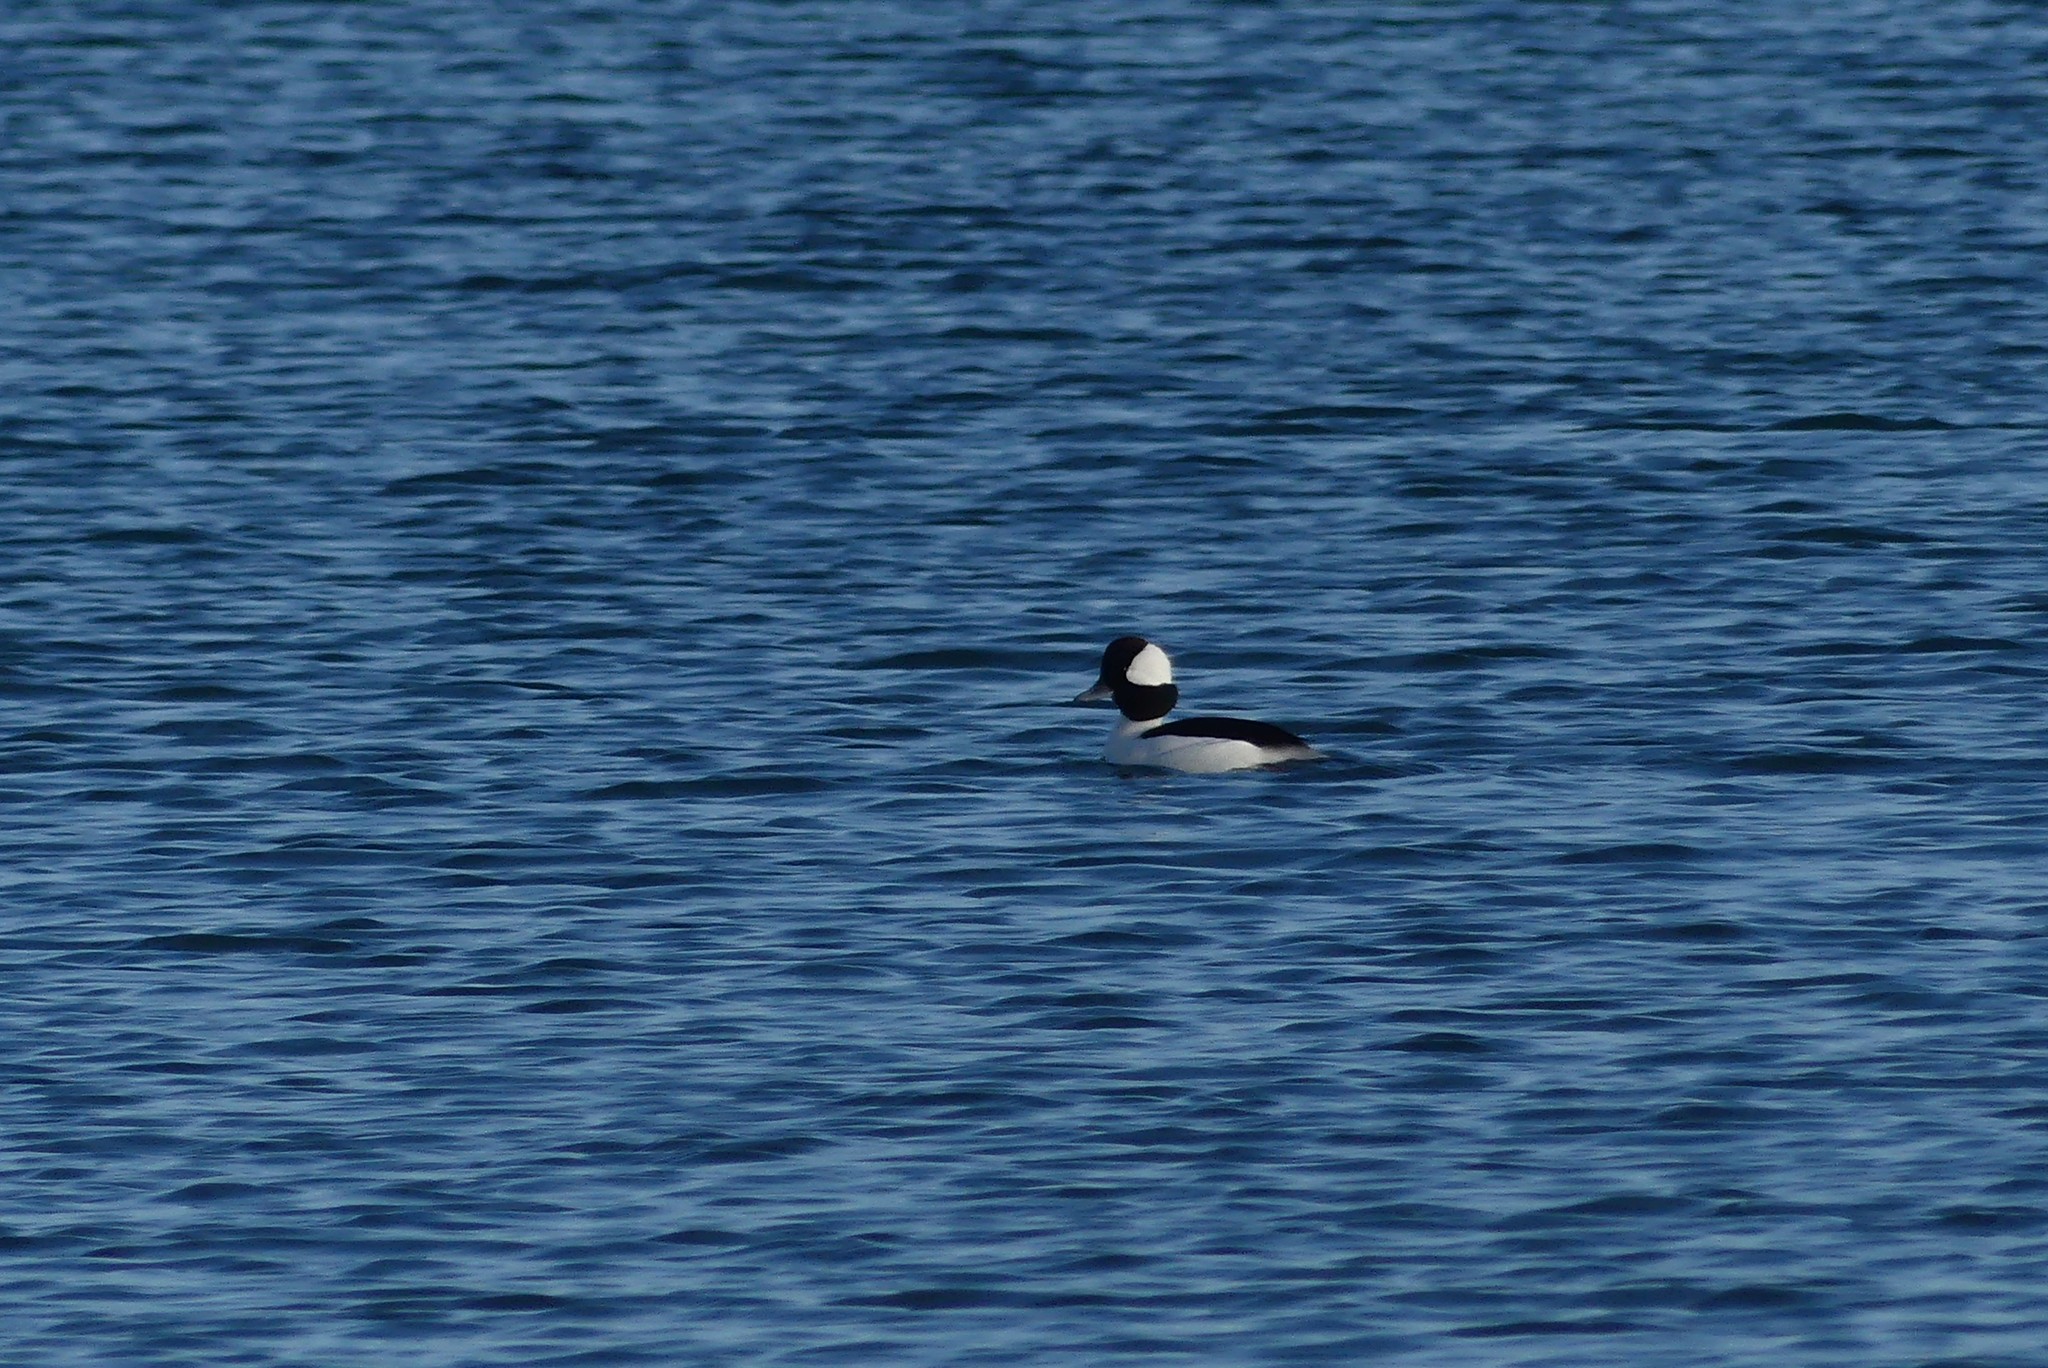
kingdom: Animalia
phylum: Chordata
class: Aves
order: Anseriformes
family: Anatidae
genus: Bucephala
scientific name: Bucephala albeola
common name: Bufflehead
